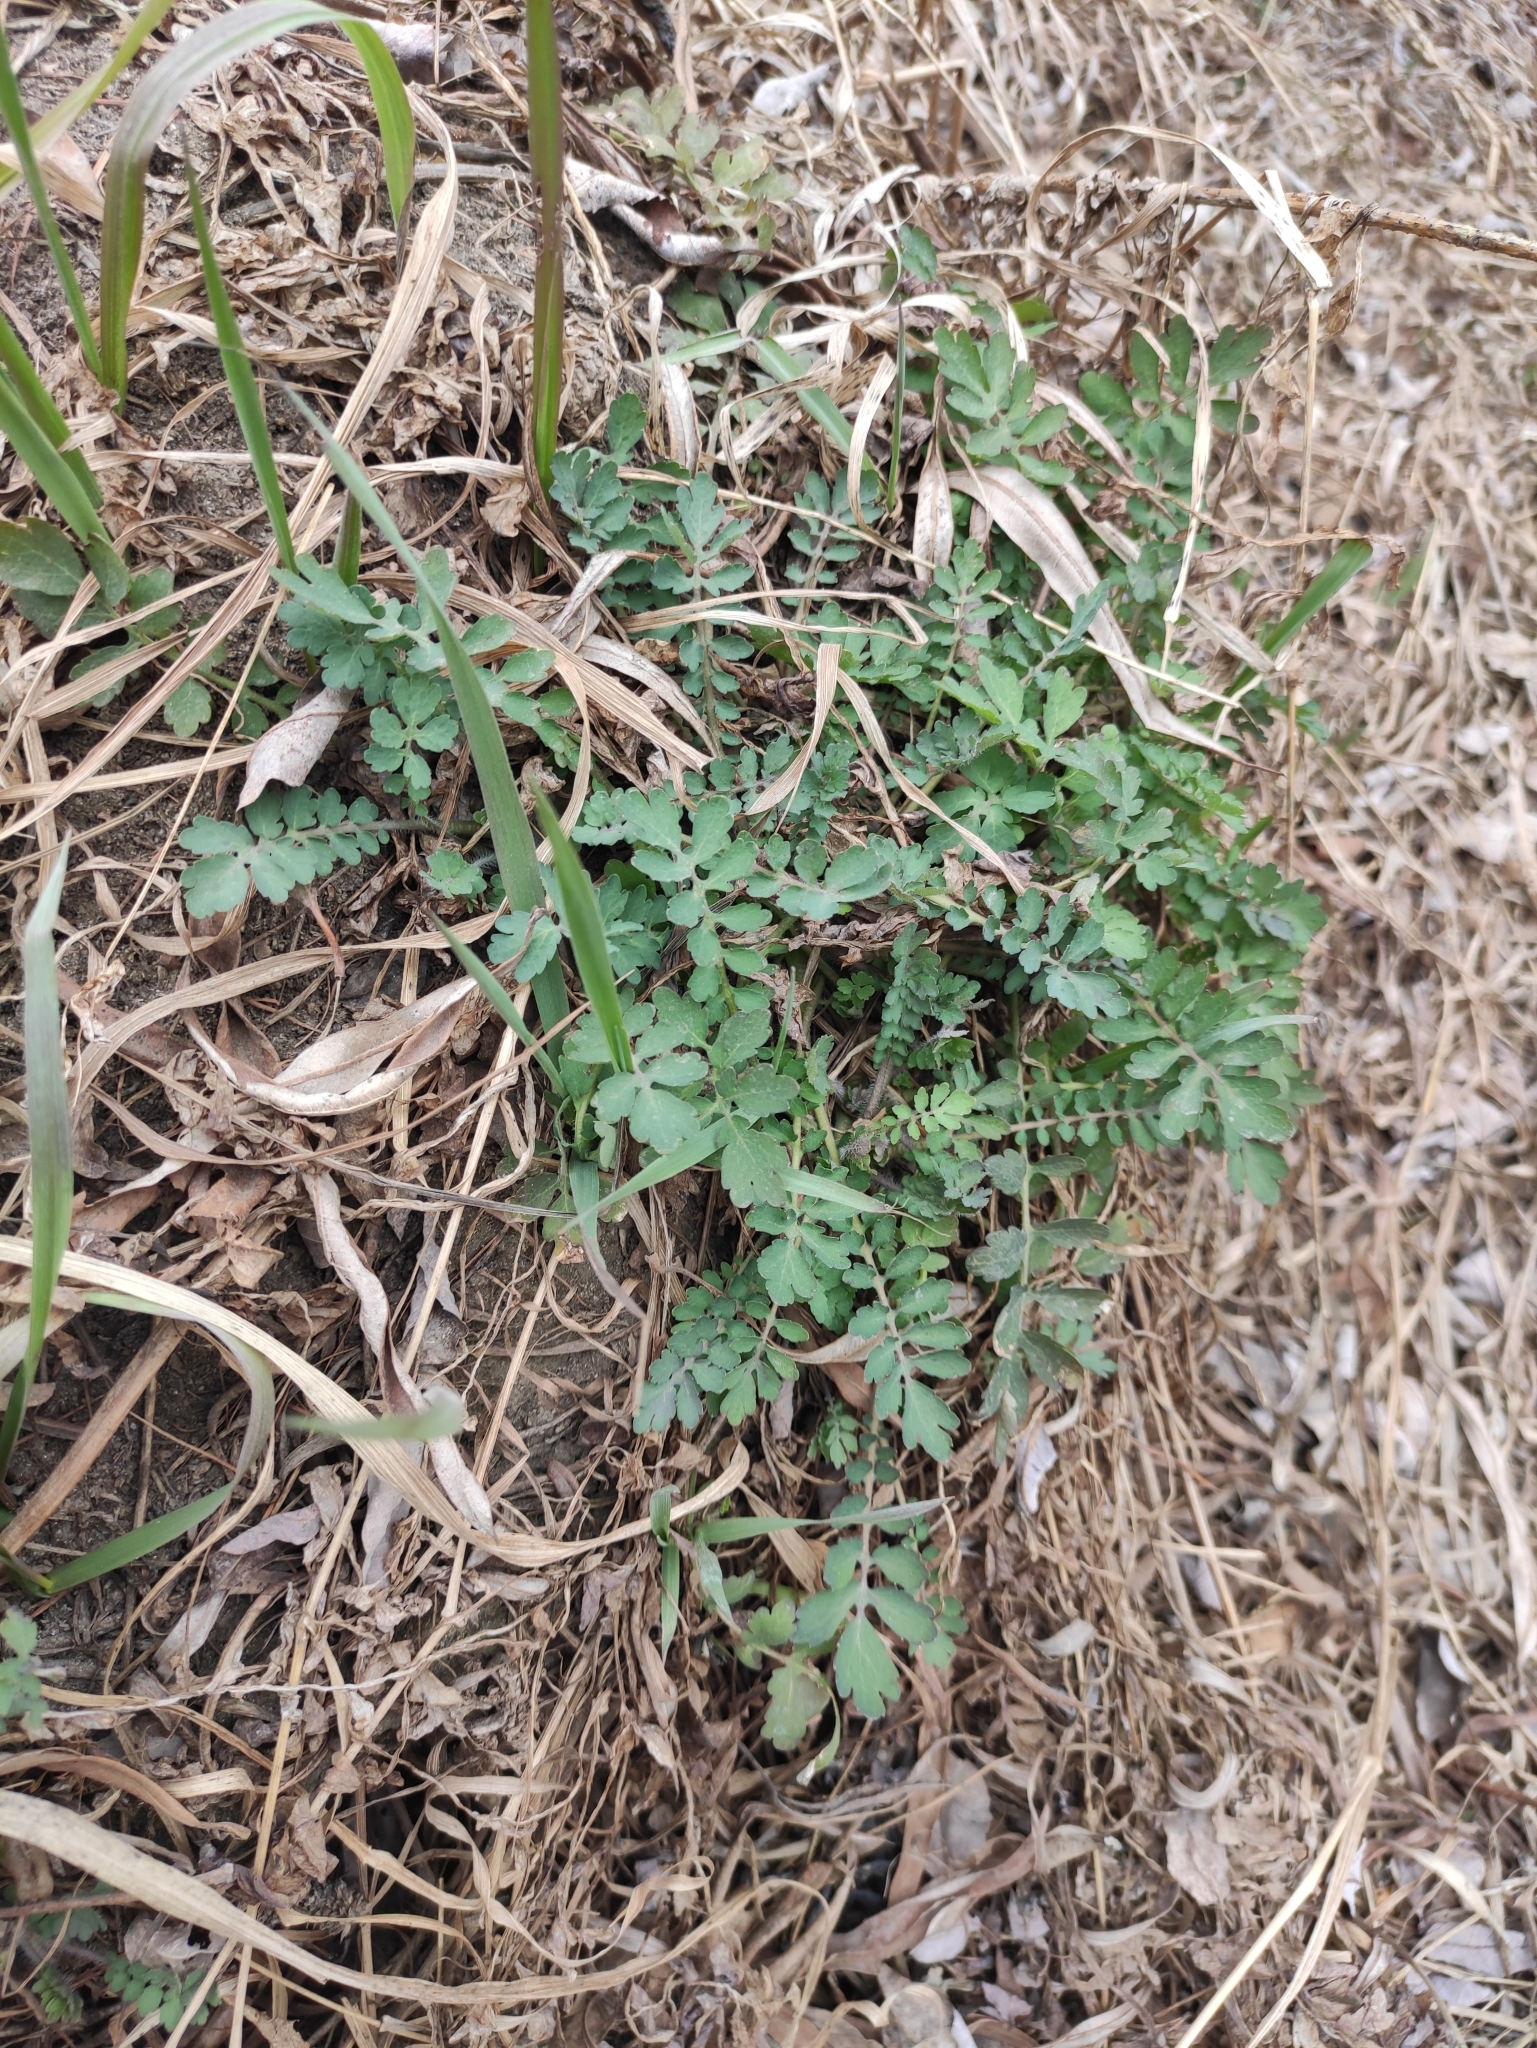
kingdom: Plantae
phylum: Tracheophyta
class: Magnoliopsida
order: Ranunculales
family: Papaveraceae
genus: Chelidonium
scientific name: Chelidonium majus
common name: Greater celandine
